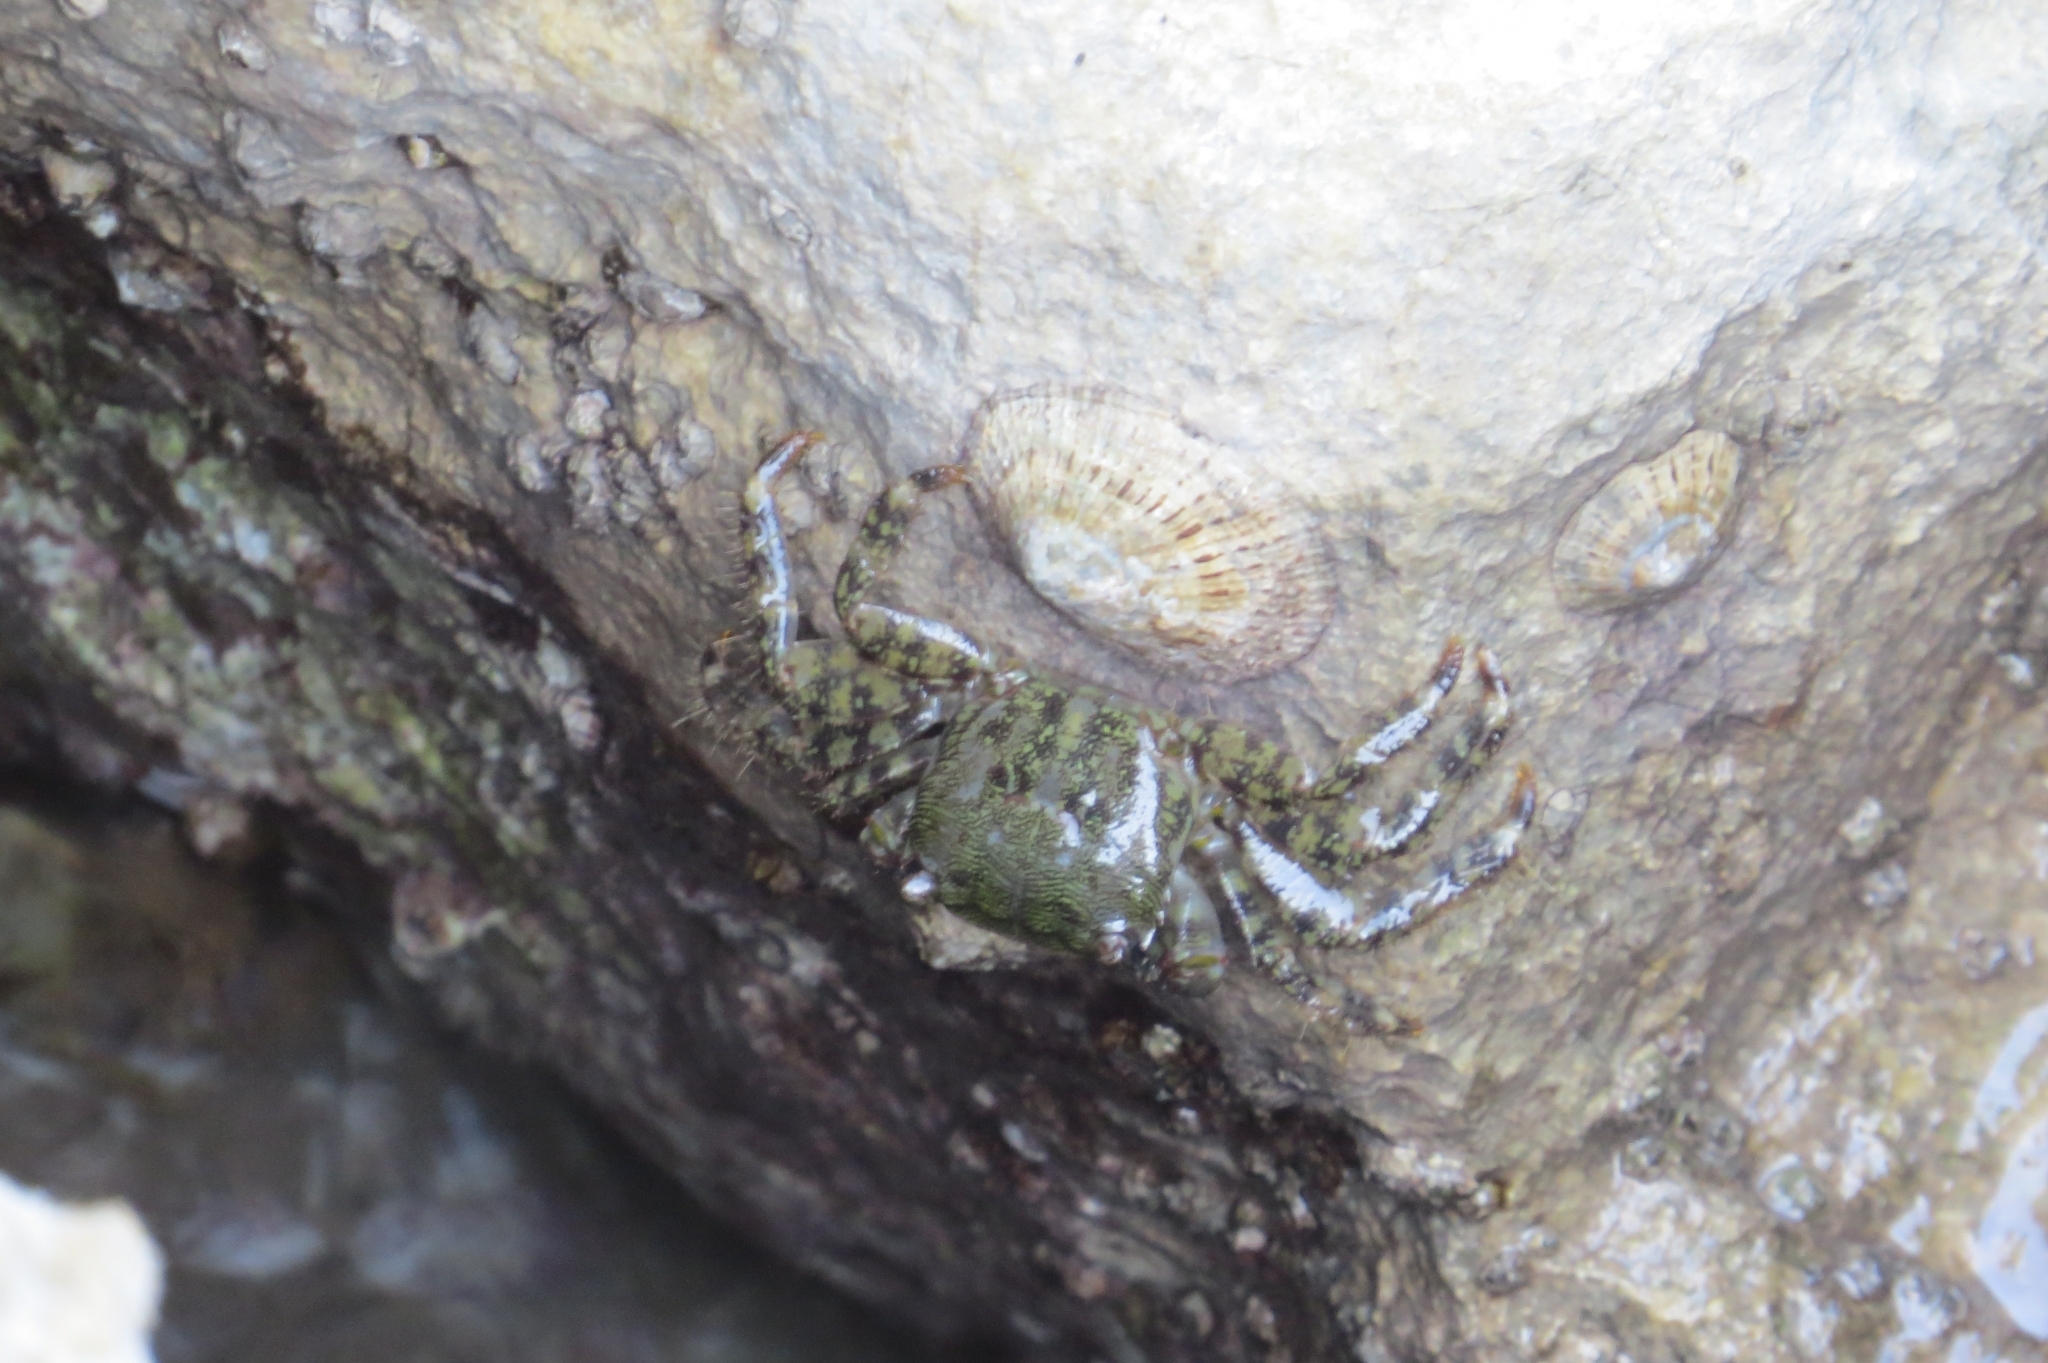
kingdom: Animalia
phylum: Arthropoda
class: Malacostraca
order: Decapoda
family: Grapsidae
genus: Pachygrapsus
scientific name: Pachygrapsus marmoratus
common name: Marbled rock crab
